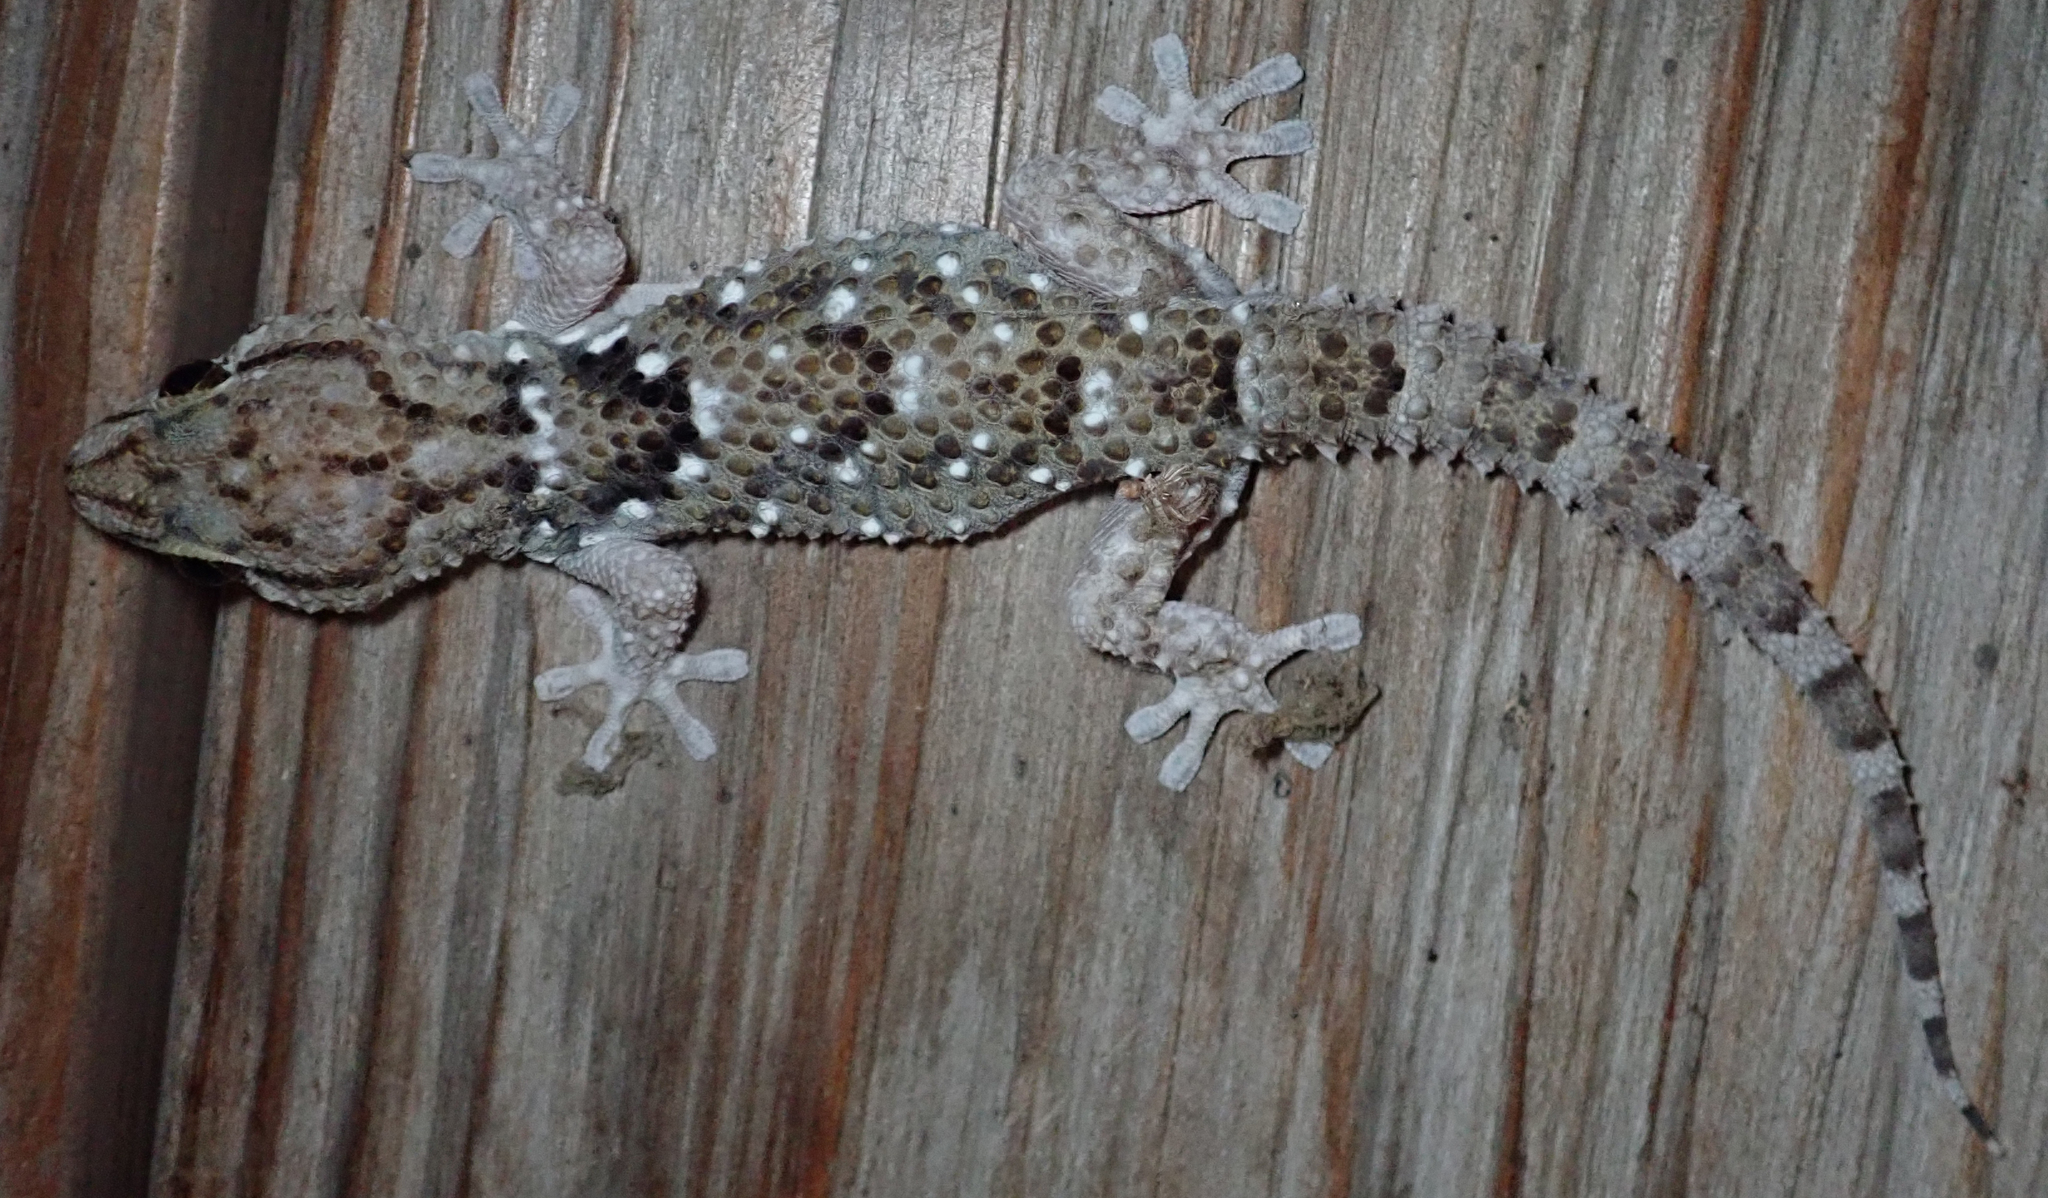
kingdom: Animalia
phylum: Chordata
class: Squamata
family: Gekkonidae
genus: Chondrodactylus
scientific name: Chondrodactylus laevigatus
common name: Fischer's thick-toed gecko
